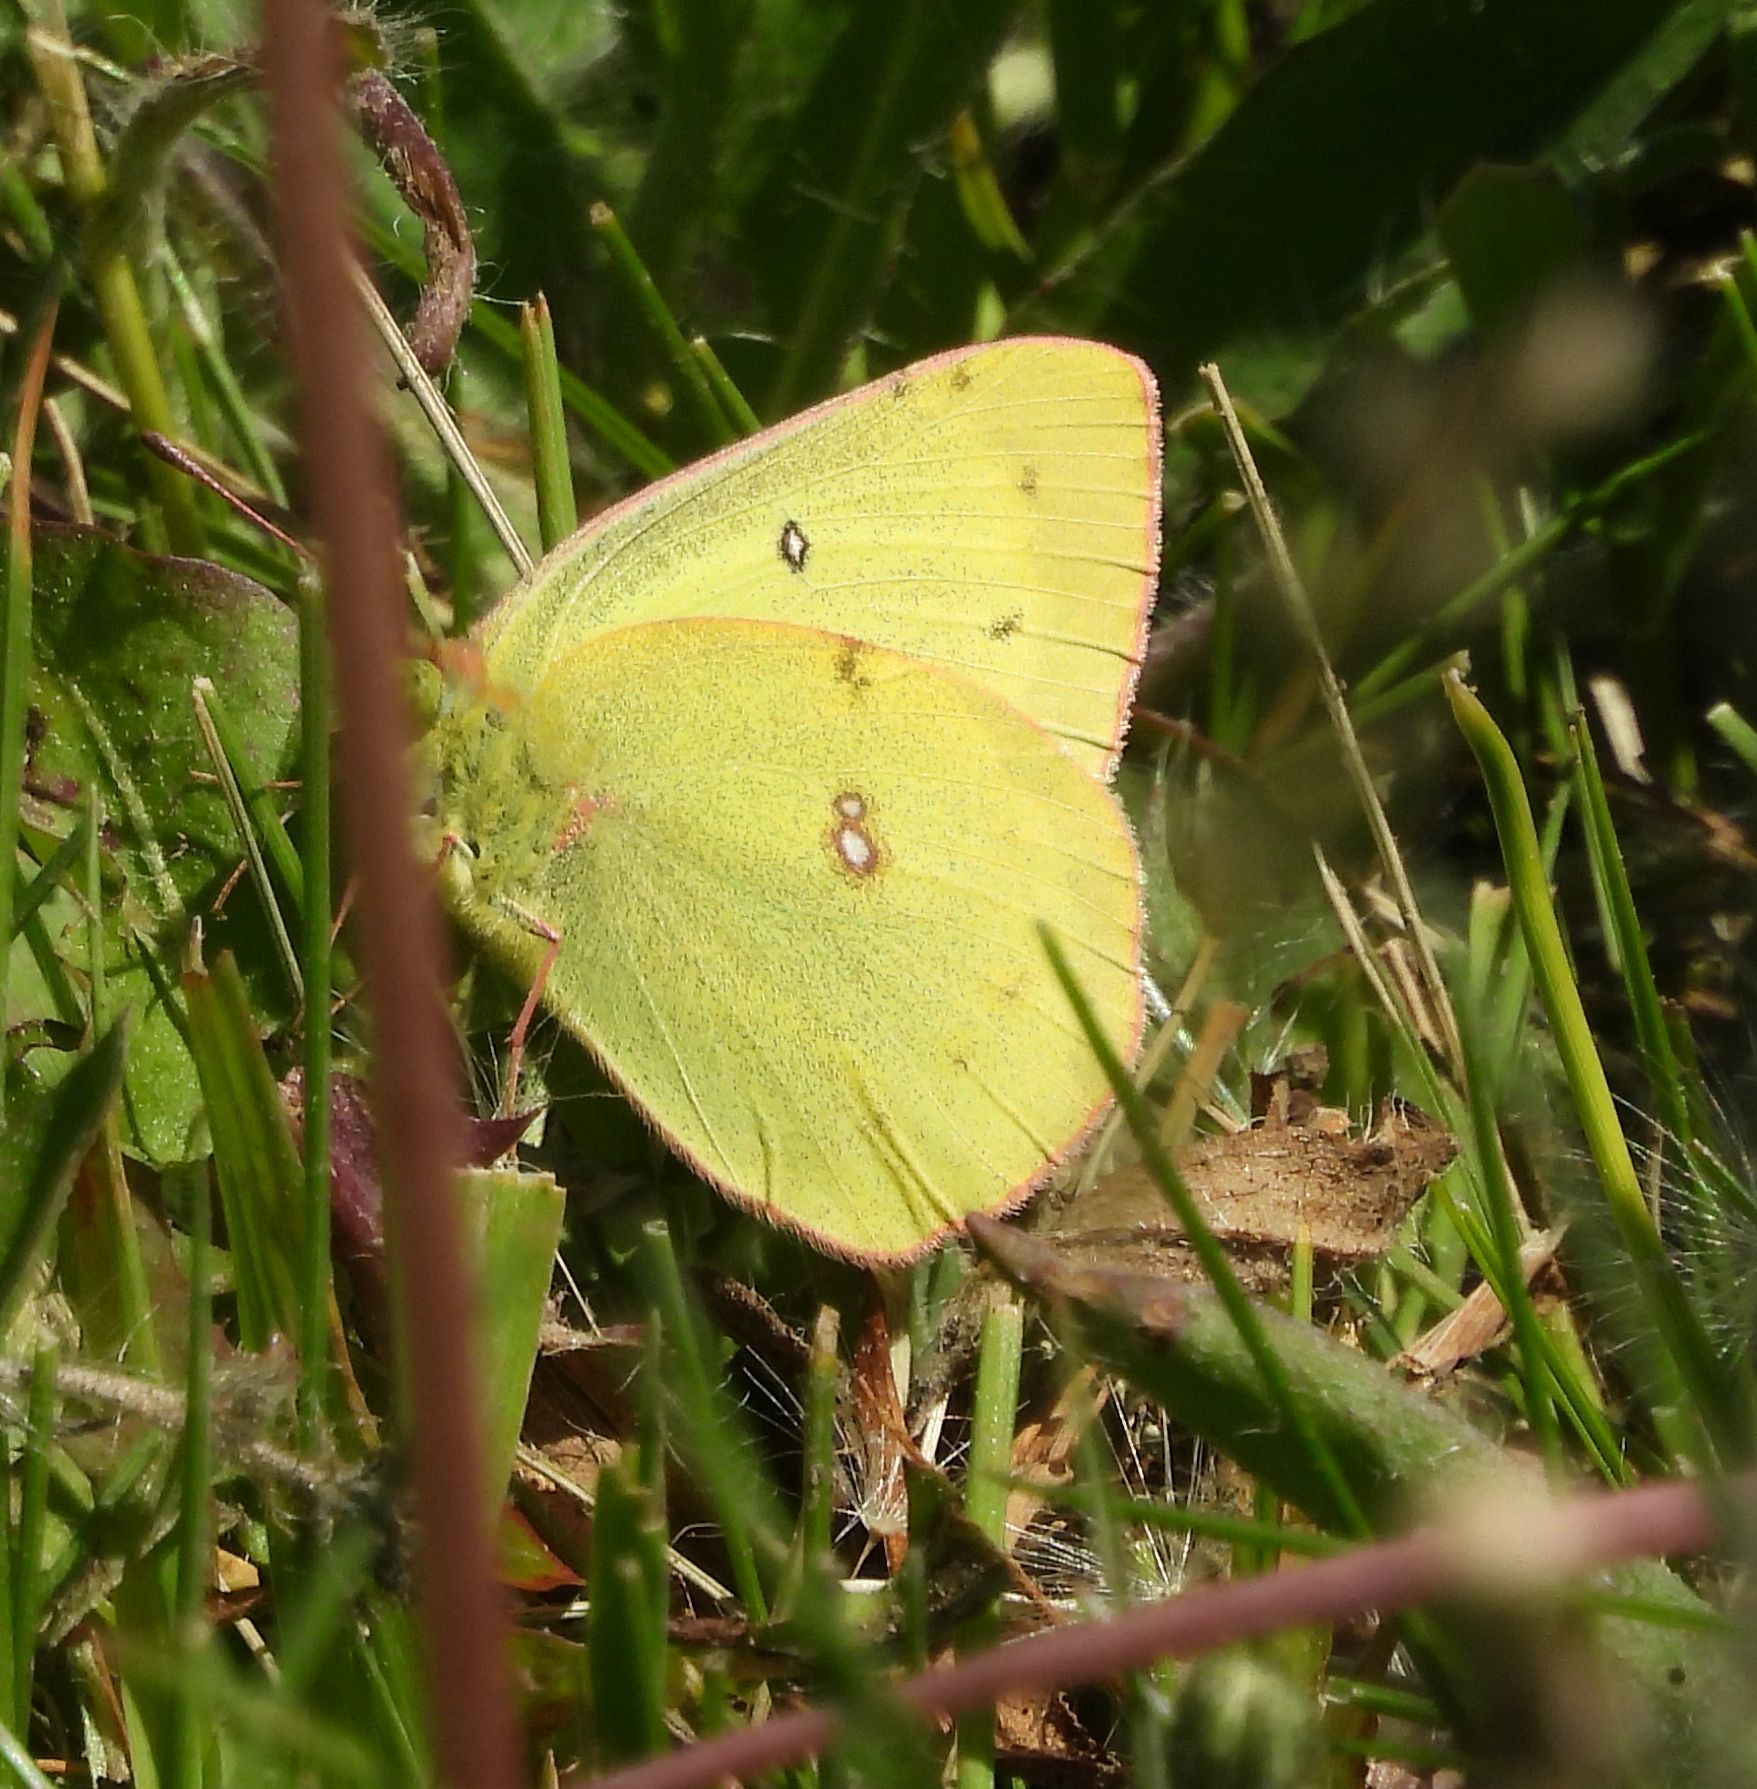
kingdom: Animalia
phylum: Arthropoda
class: Insecta
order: Lepidoptera
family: Pieridae
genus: Colias
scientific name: Colias philodice
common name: Clouded sulphur
